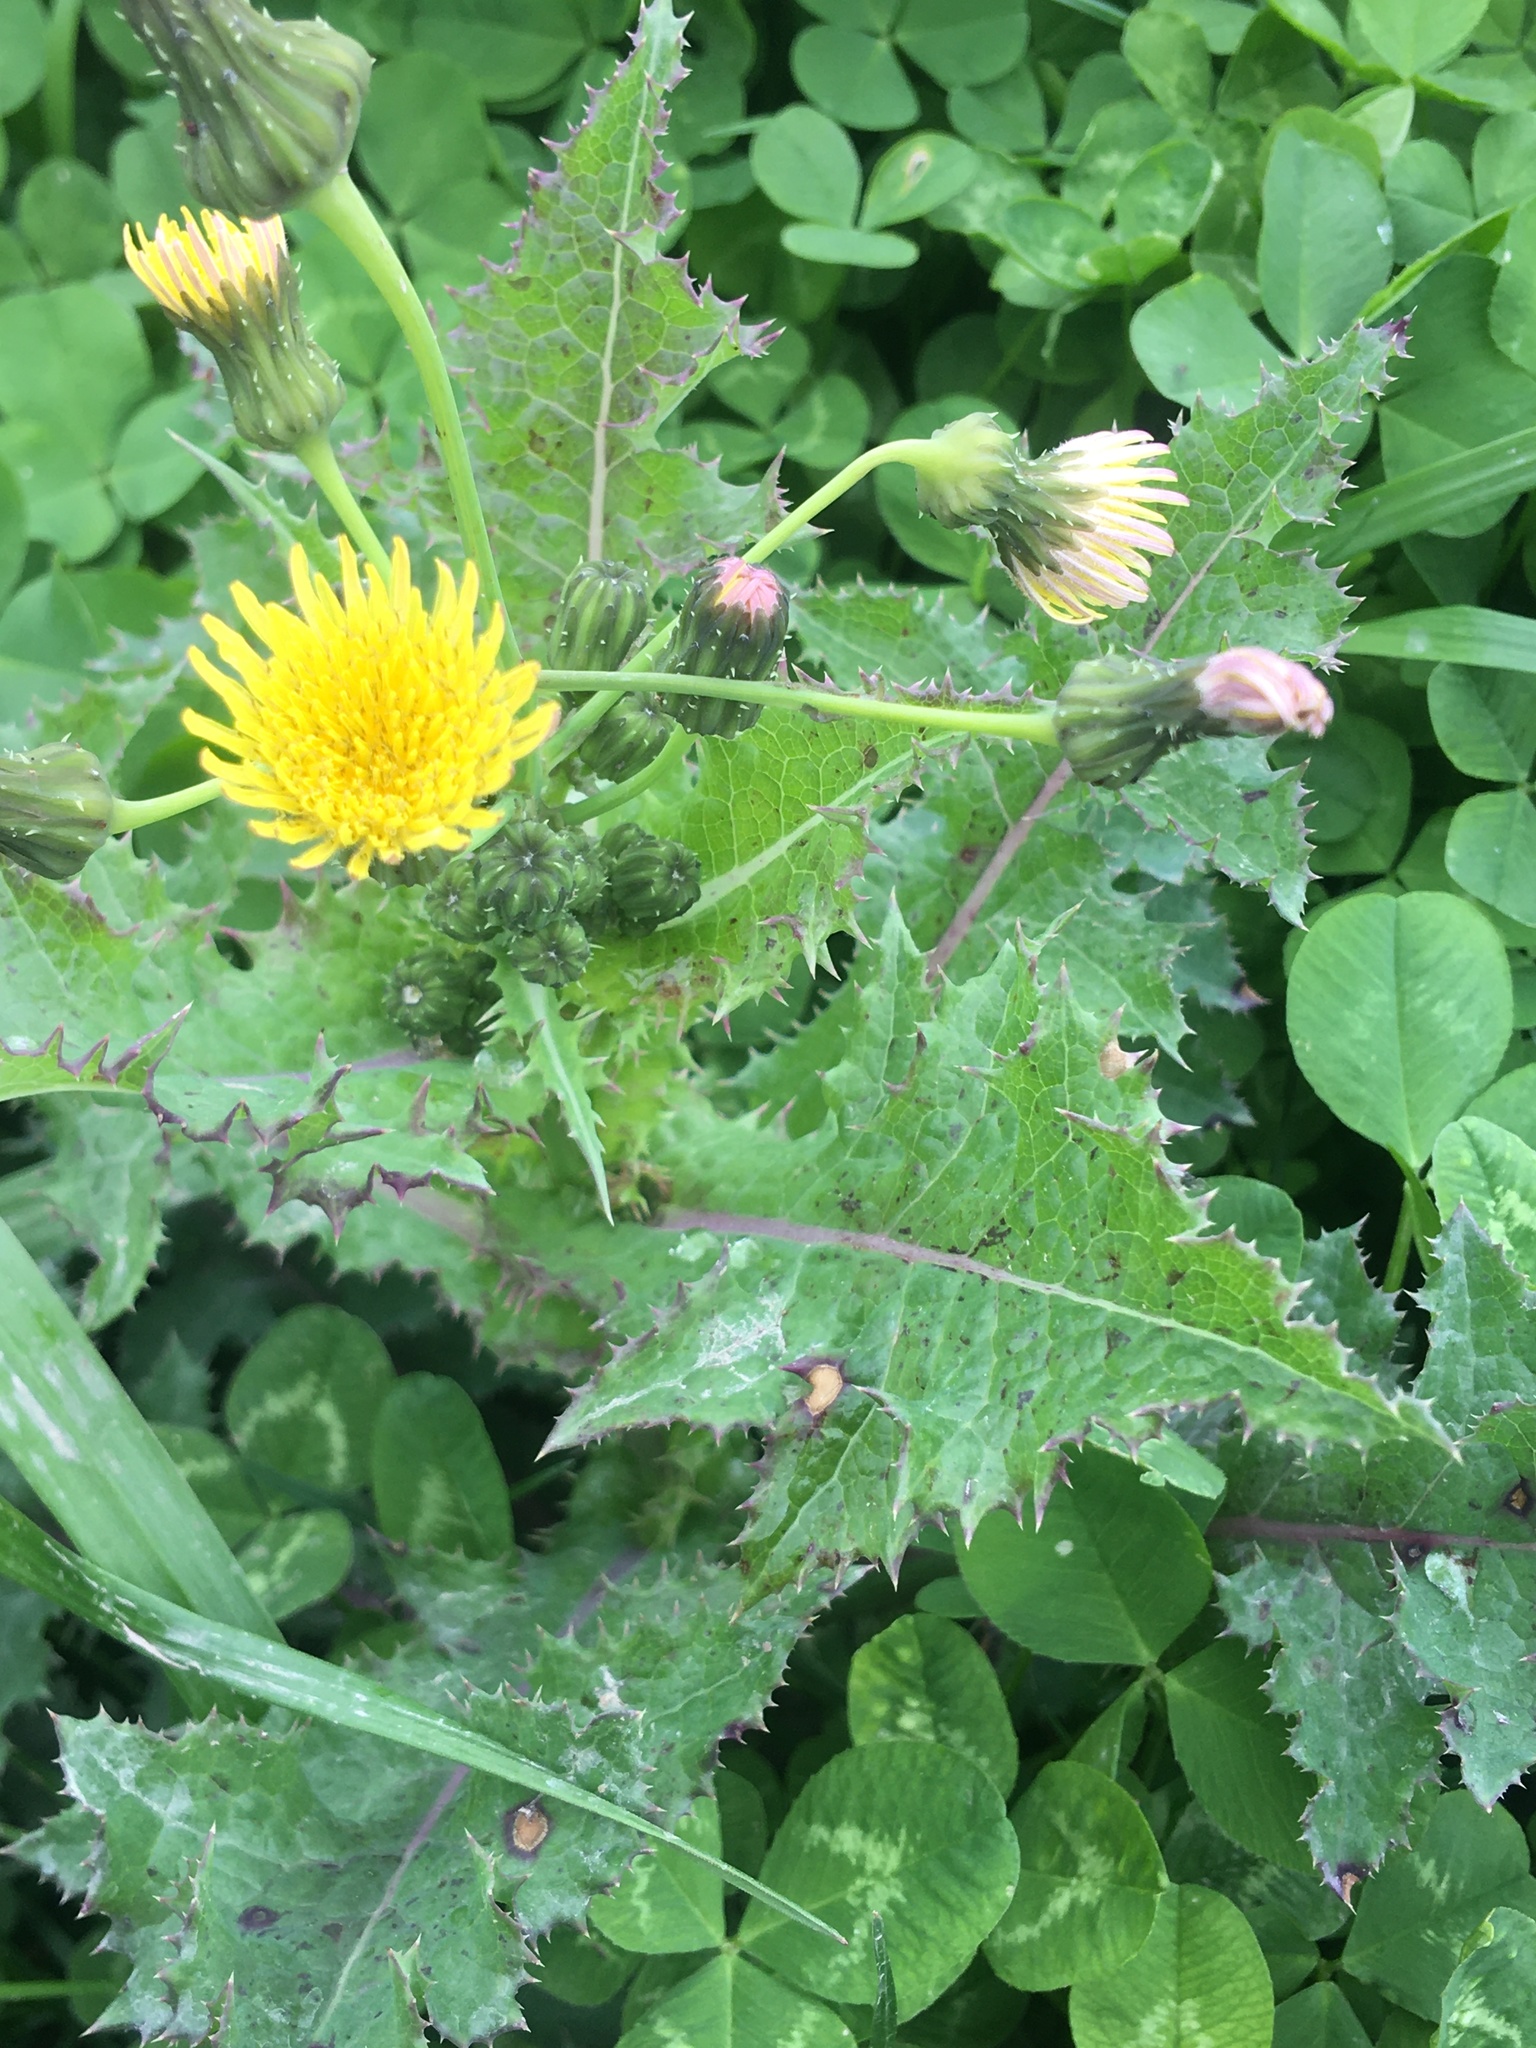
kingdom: Plantae
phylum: Tracheophyta
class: Magnoliopsida
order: Asterales
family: Asteraceae
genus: Sonchus
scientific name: Sonchus asper
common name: Prickly sow-thistle
